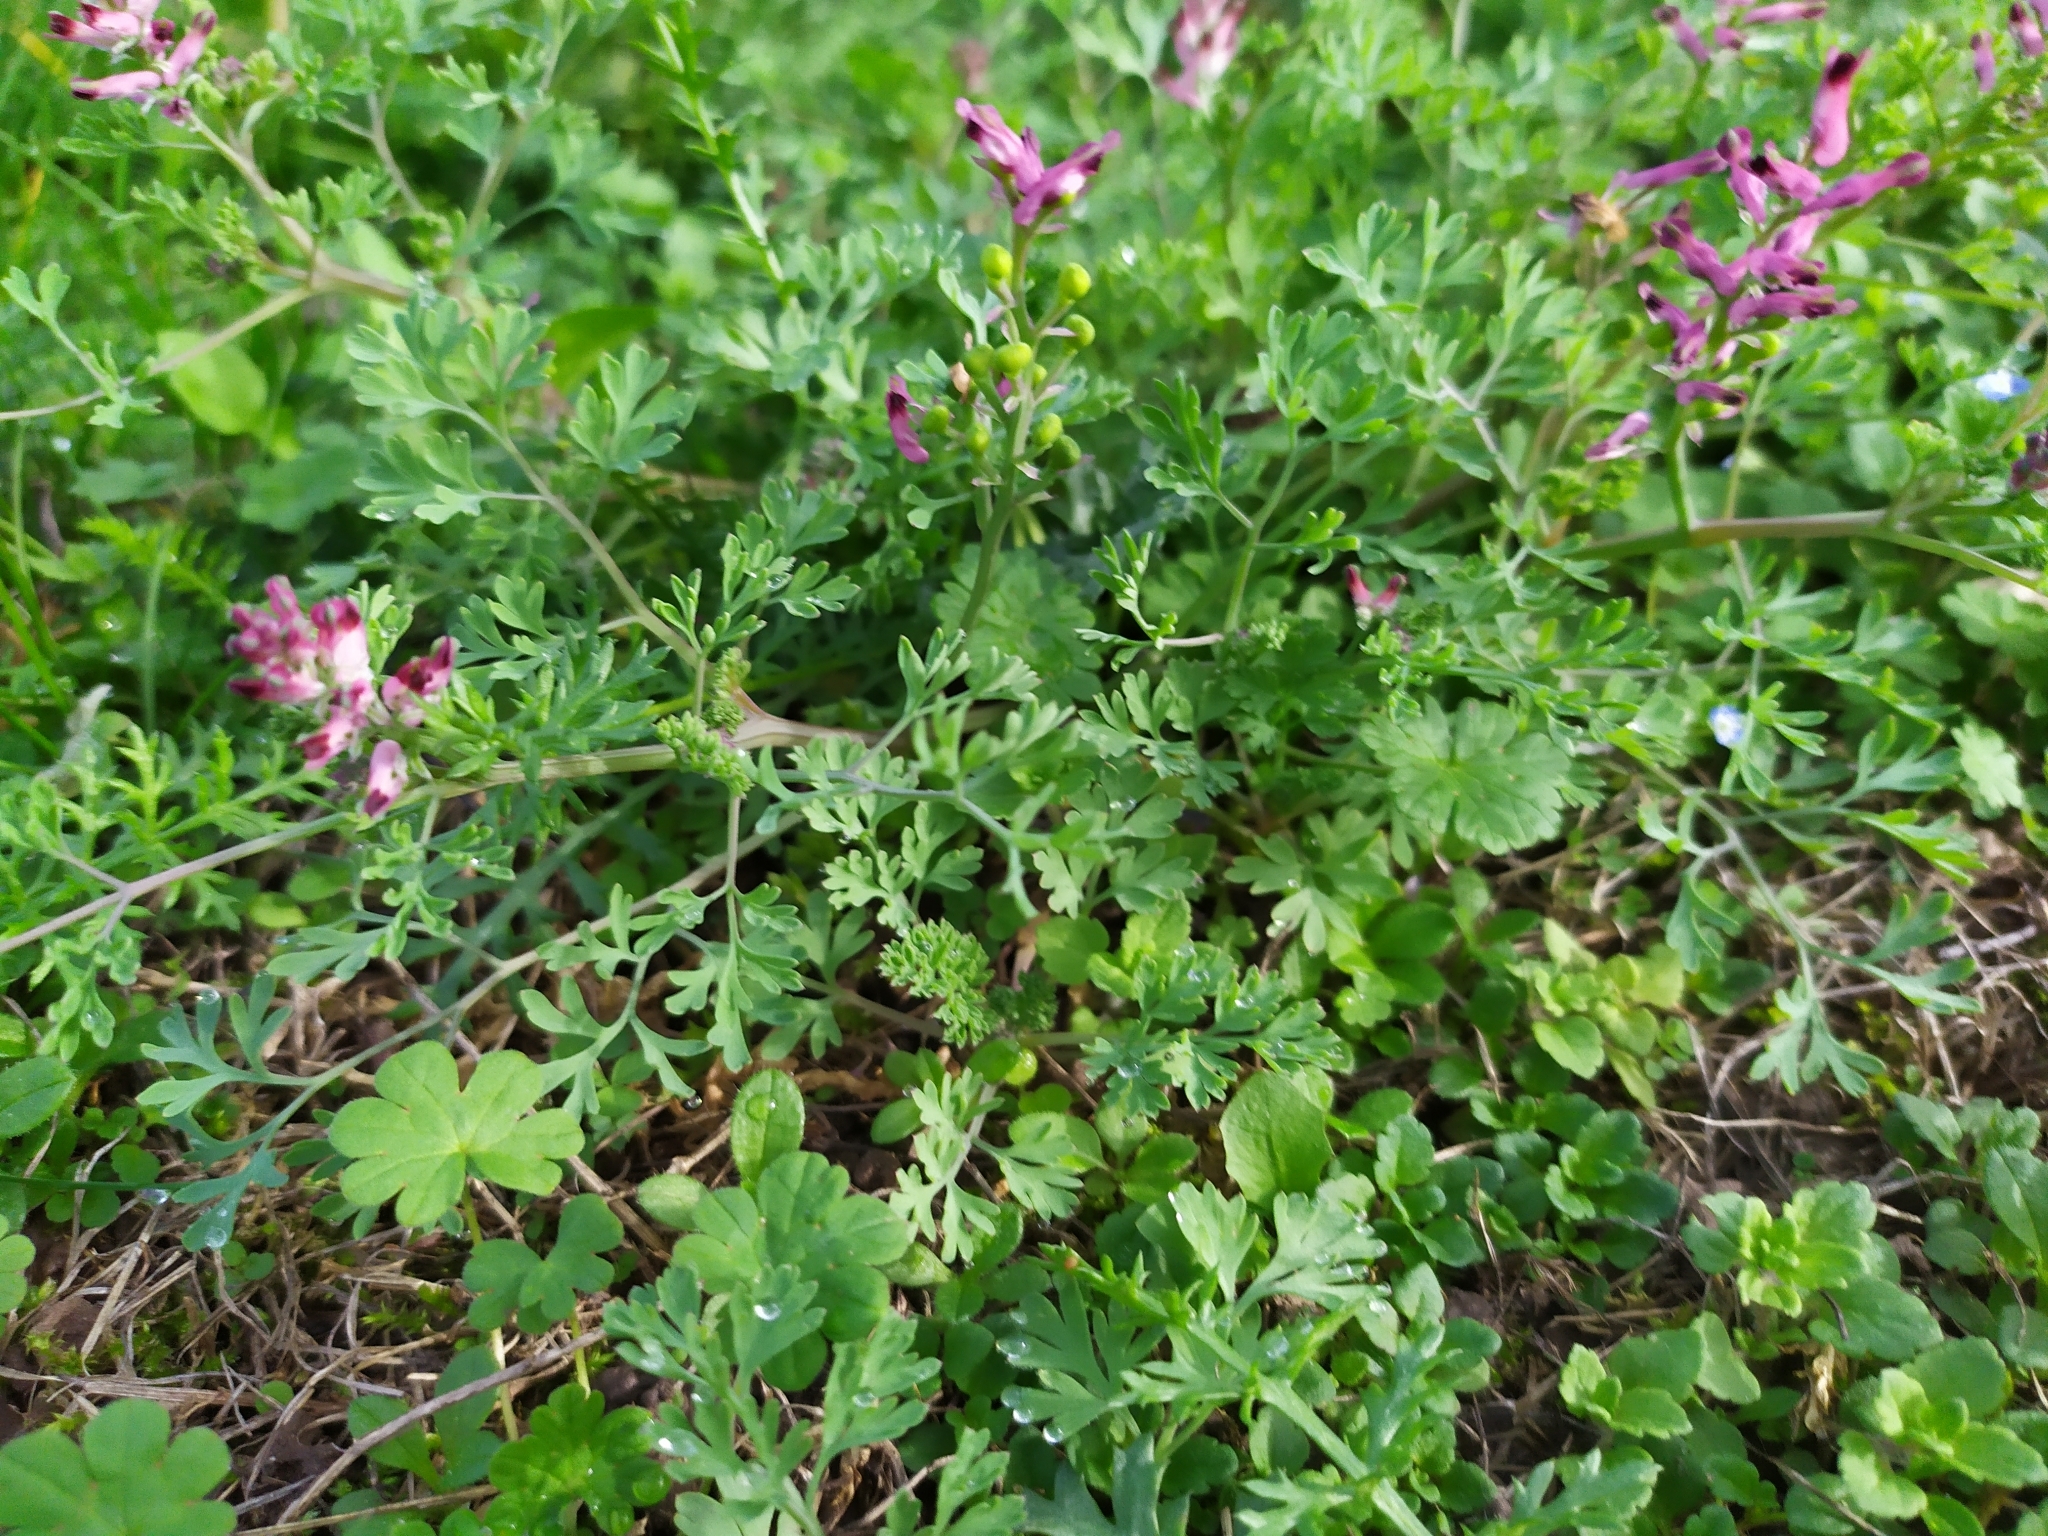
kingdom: Plantae
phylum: Tracheophyta
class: Magnoliopsida
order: Ranunculales
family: Papaveraceae
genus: Fumaria
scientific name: Fumaria officinalis
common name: Common fumitory
